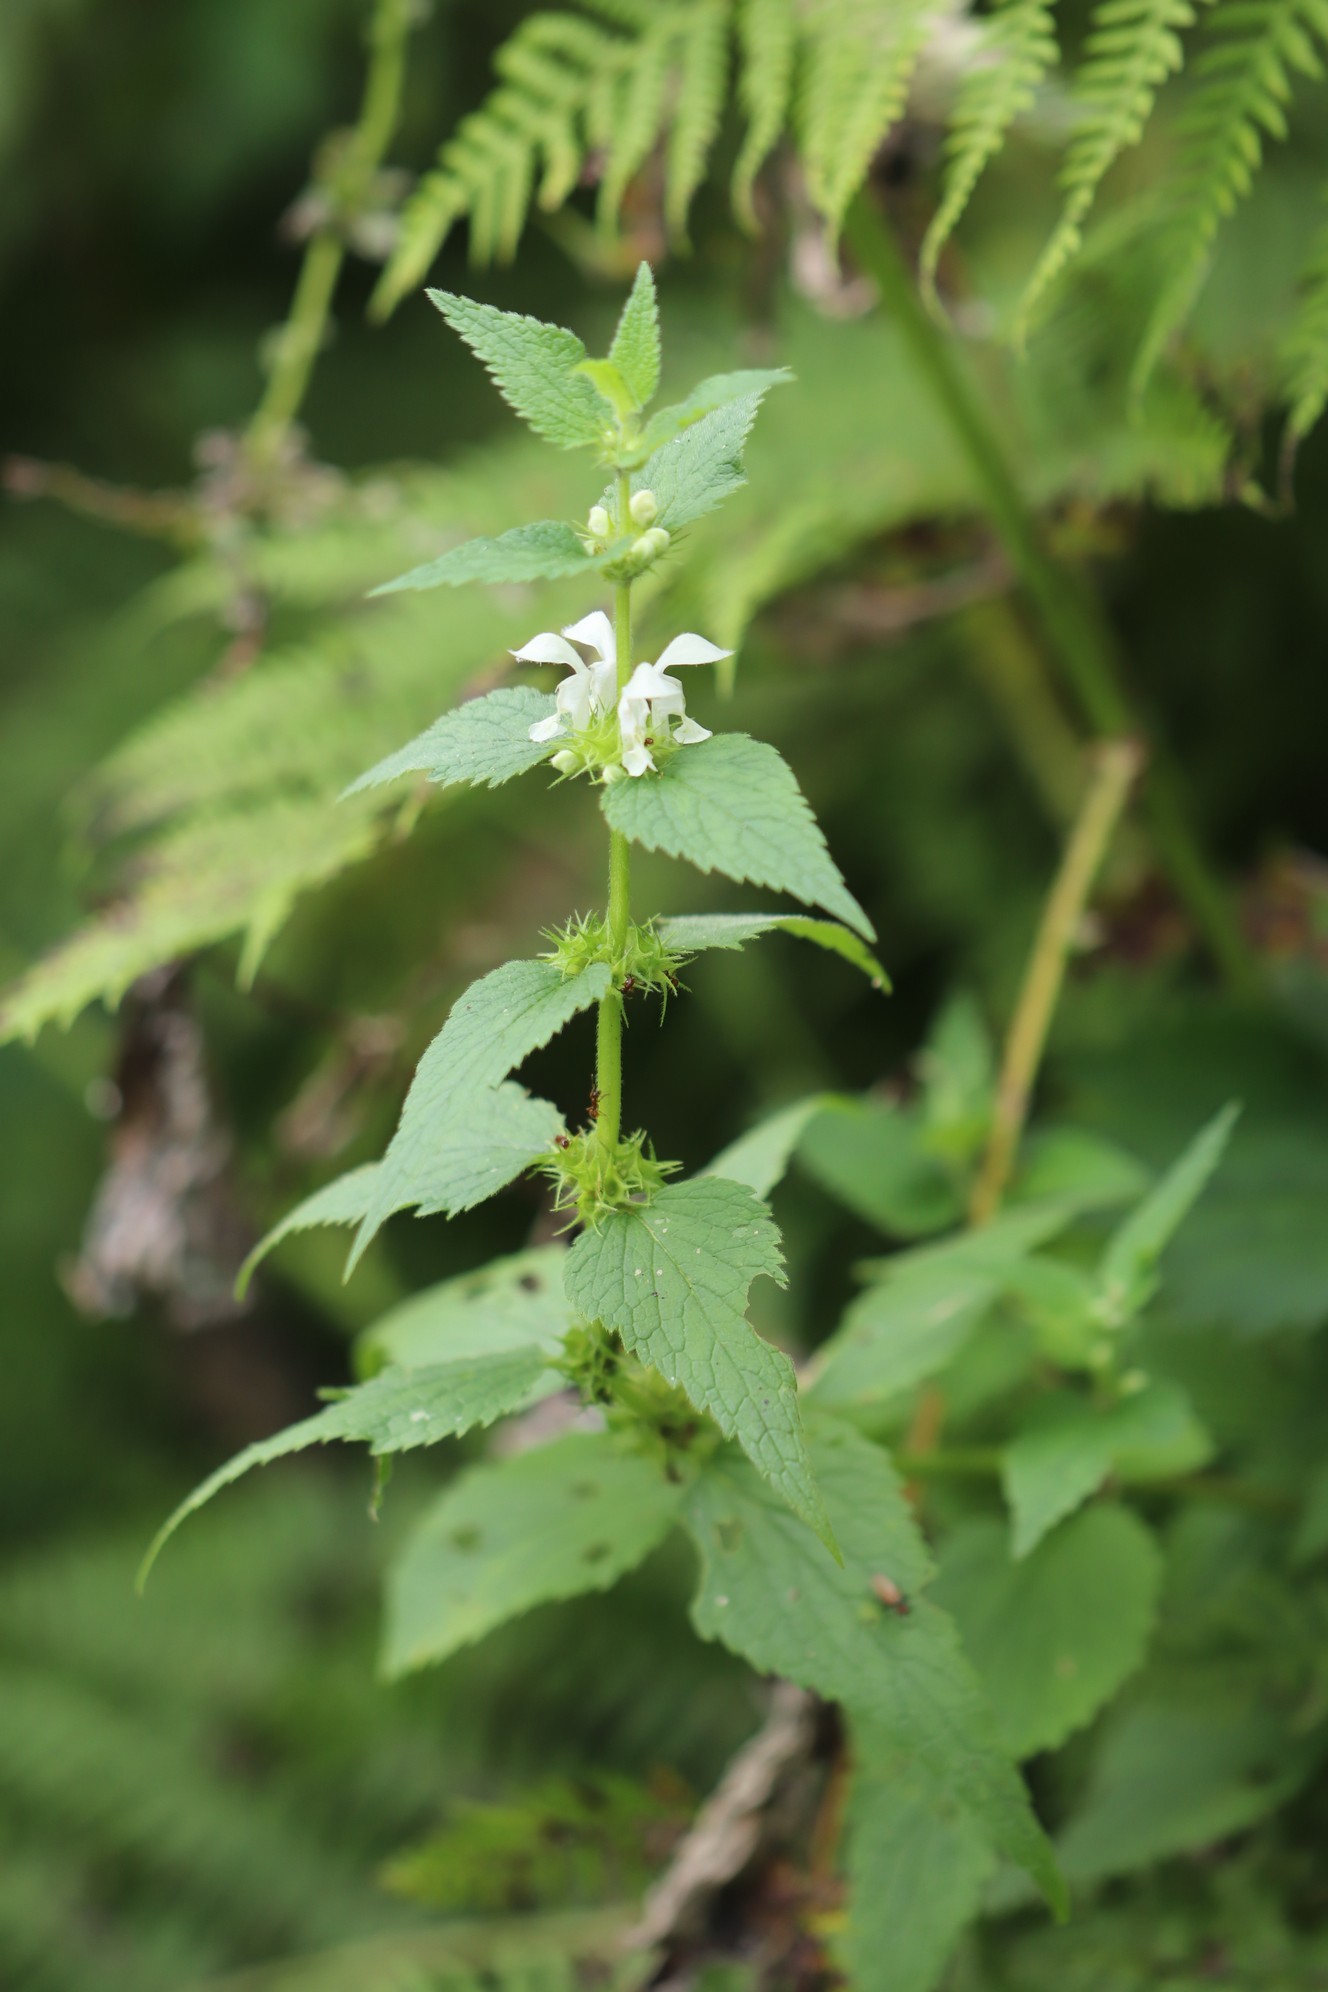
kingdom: Plantae
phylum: Tracheophyta
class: Magnoliopsida
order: Lamiales
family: Lamiaceae
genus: Lamium
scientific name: Lamium album
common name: White dead-nettle
